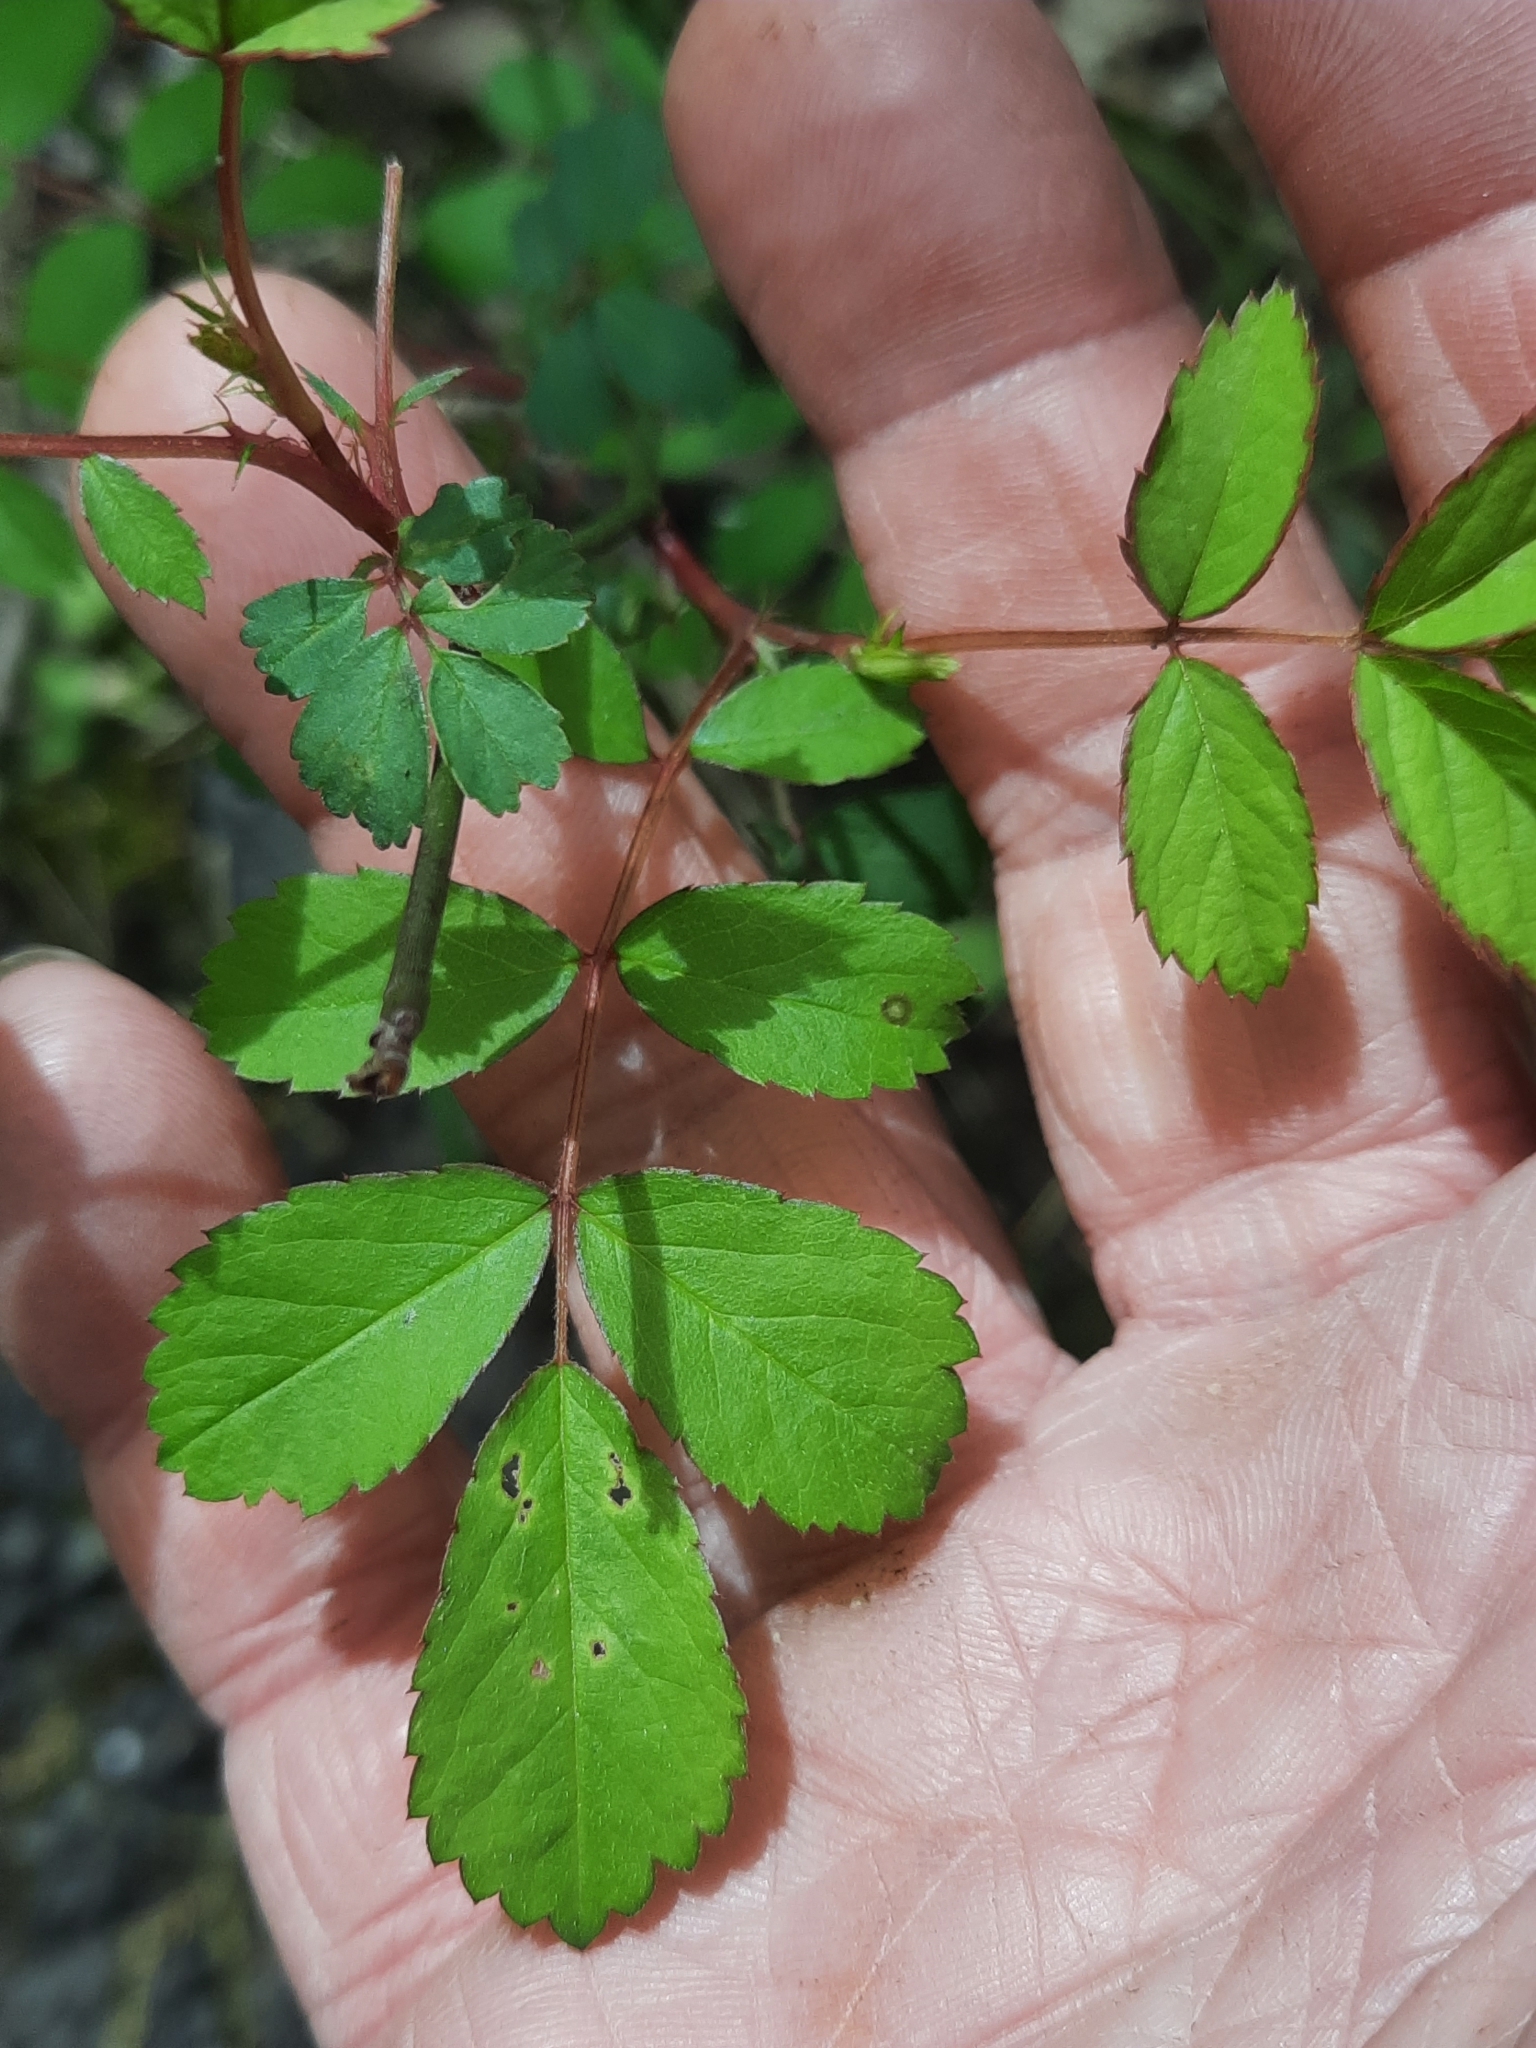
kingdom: Plantae
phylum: Tracheophyta
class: Magnoliopsida
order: Rosales
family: Rosaceae
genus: Rosa
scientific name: Rosa multiflora
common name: Multiflora rose
